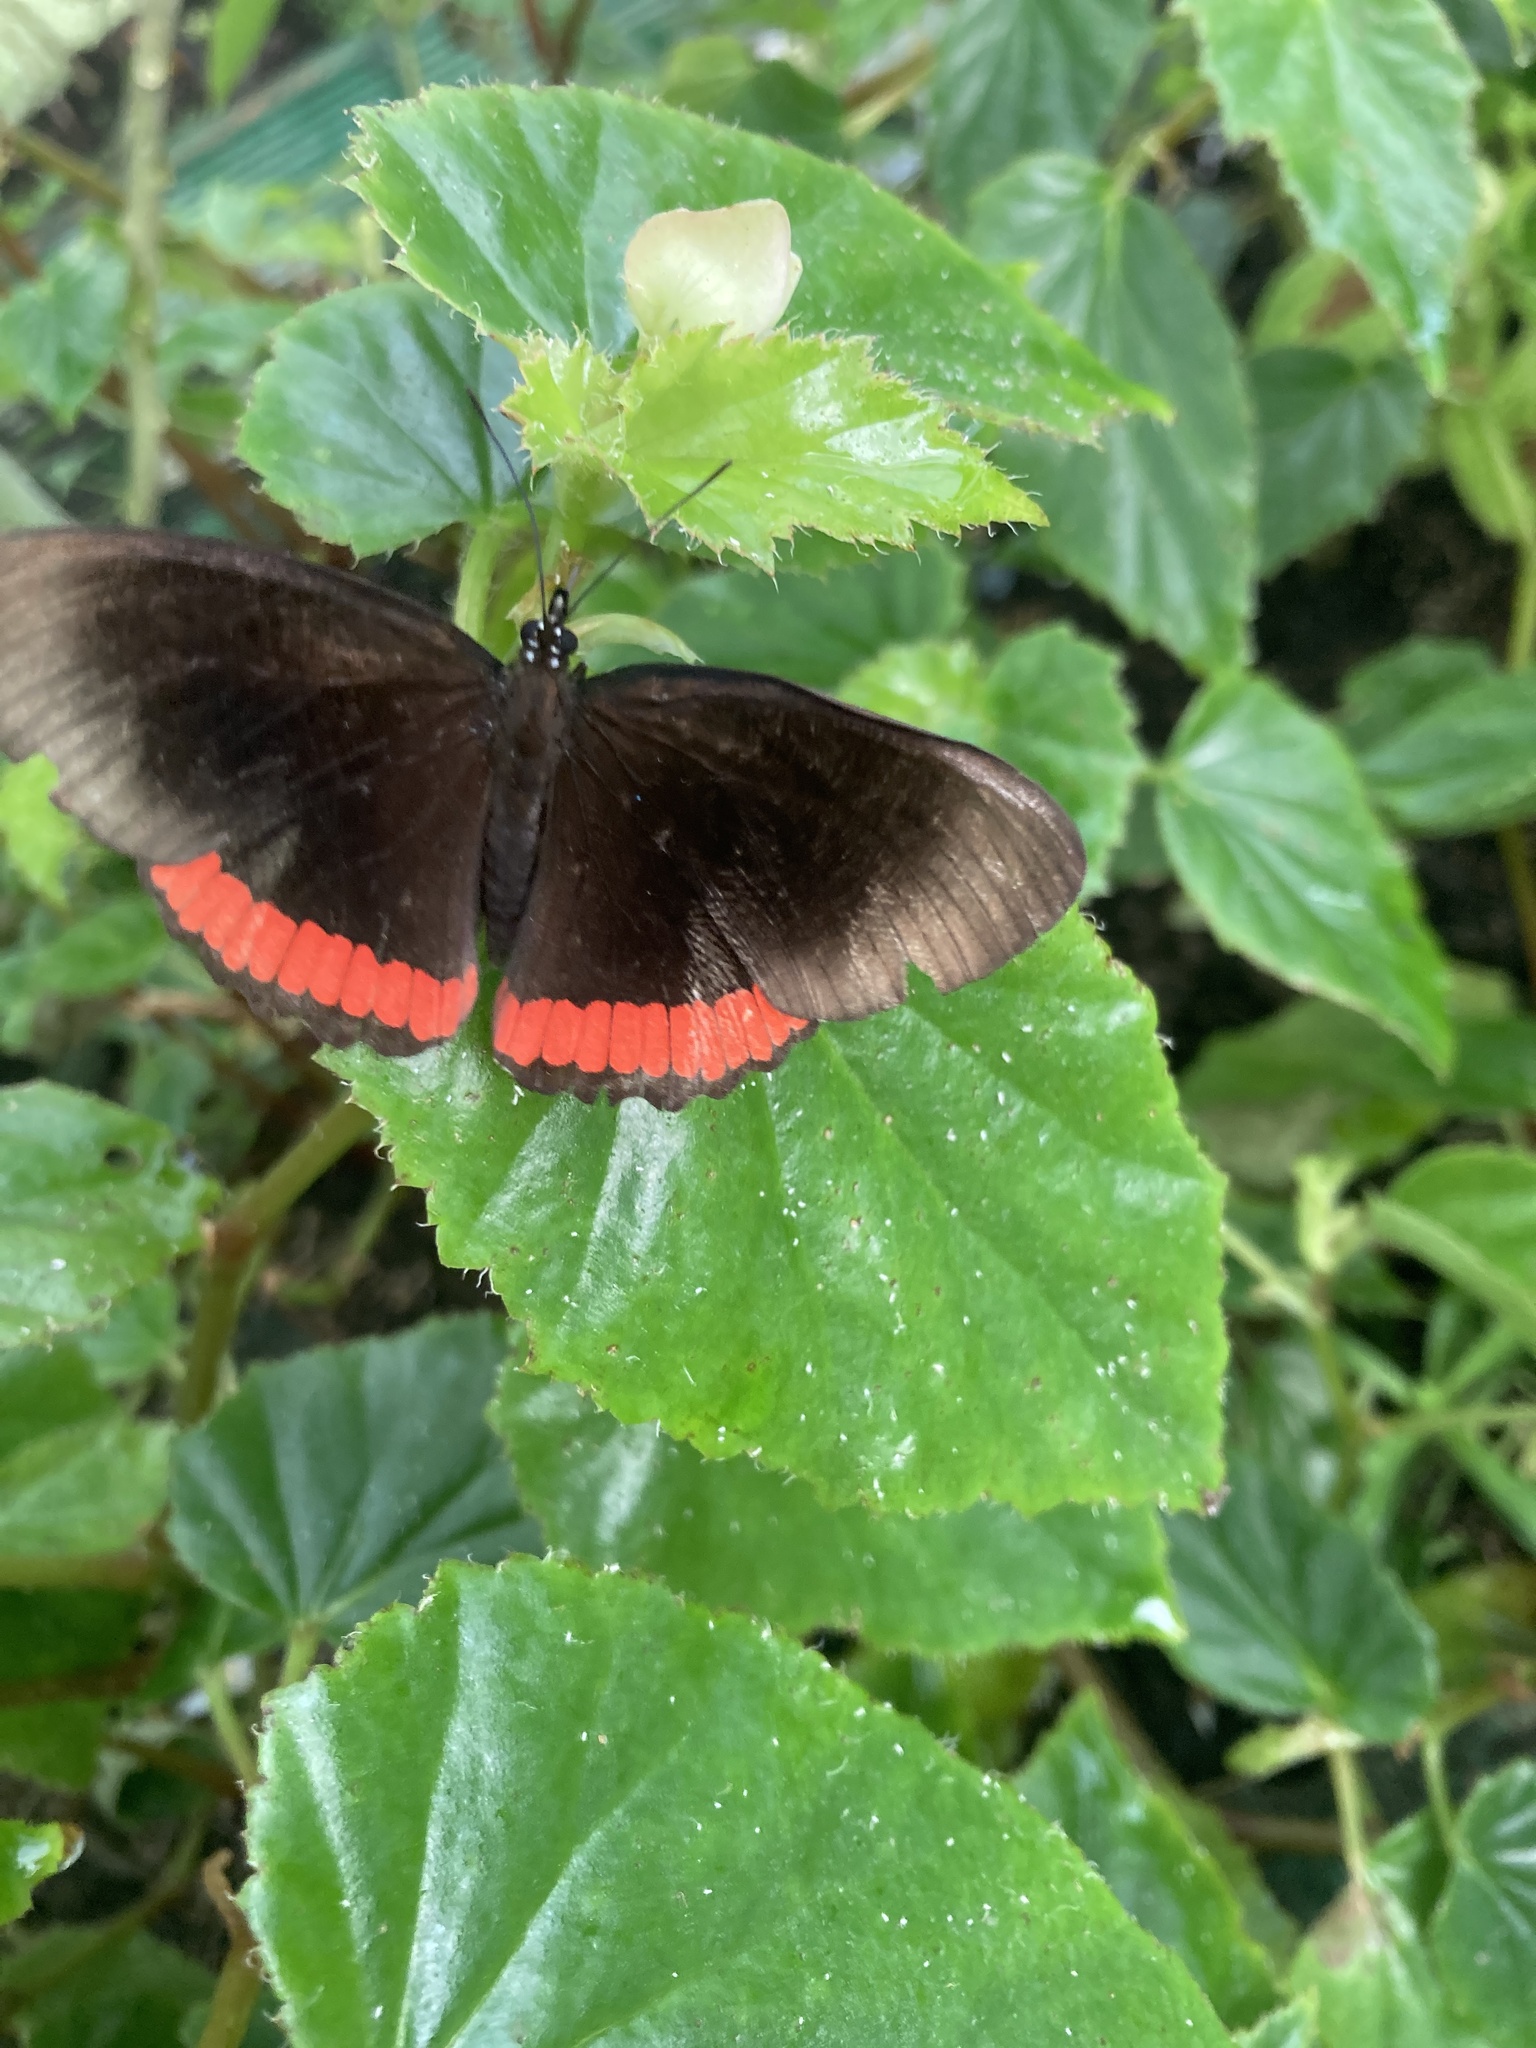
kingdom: Animalia
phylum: Arthropoda
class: Insecta
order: Lepidoptera
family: Sesiidae
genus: Sesia
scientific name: Sesia Biblis hyperia
